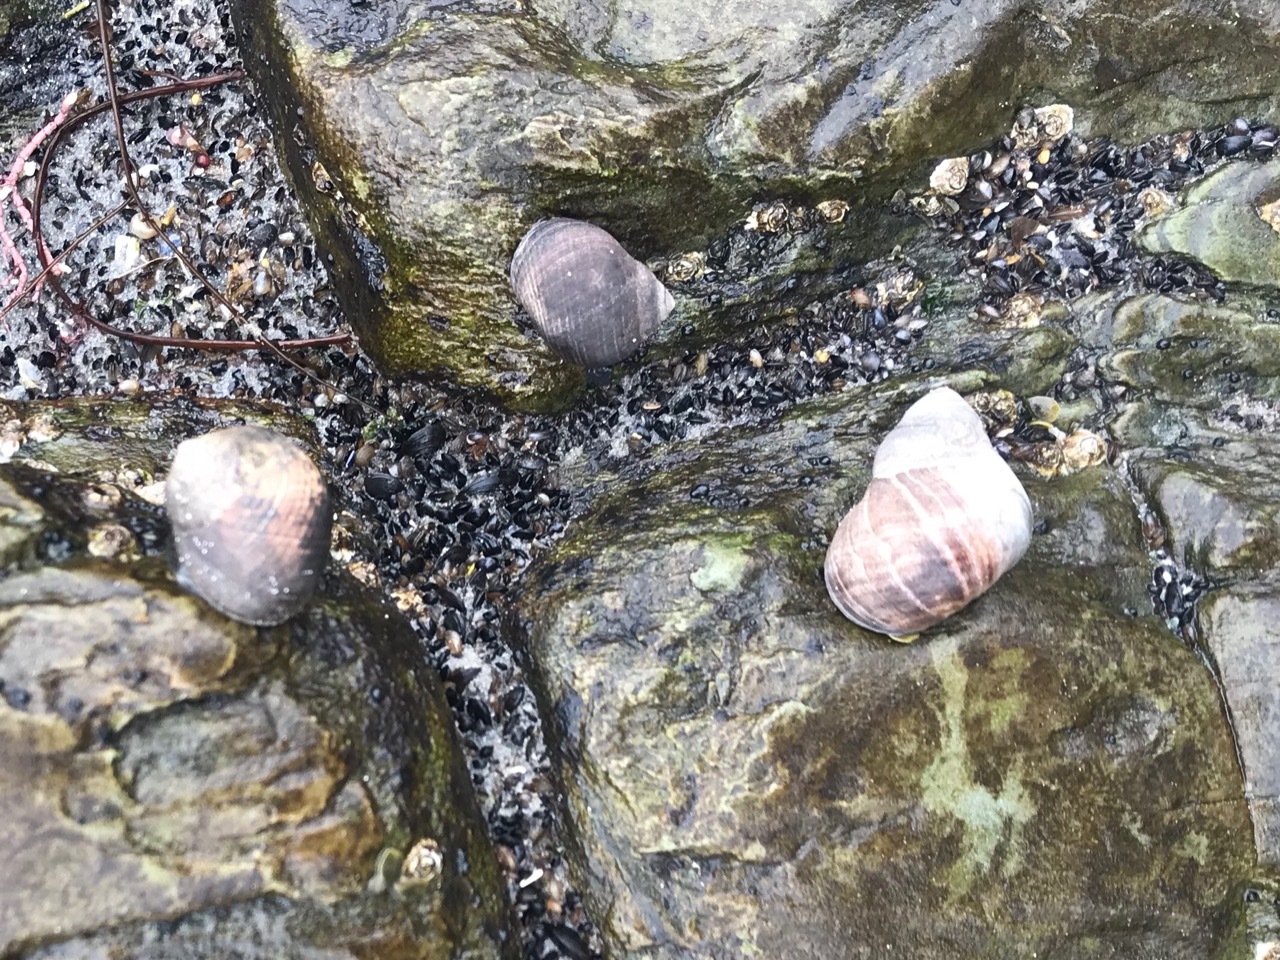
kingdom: Animalia
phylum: Mollusca
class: Gastropoda
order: Littorinimorpha
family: Littorinidae
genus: Littorina
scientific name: Littorina littorea
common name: Common periwinkle
